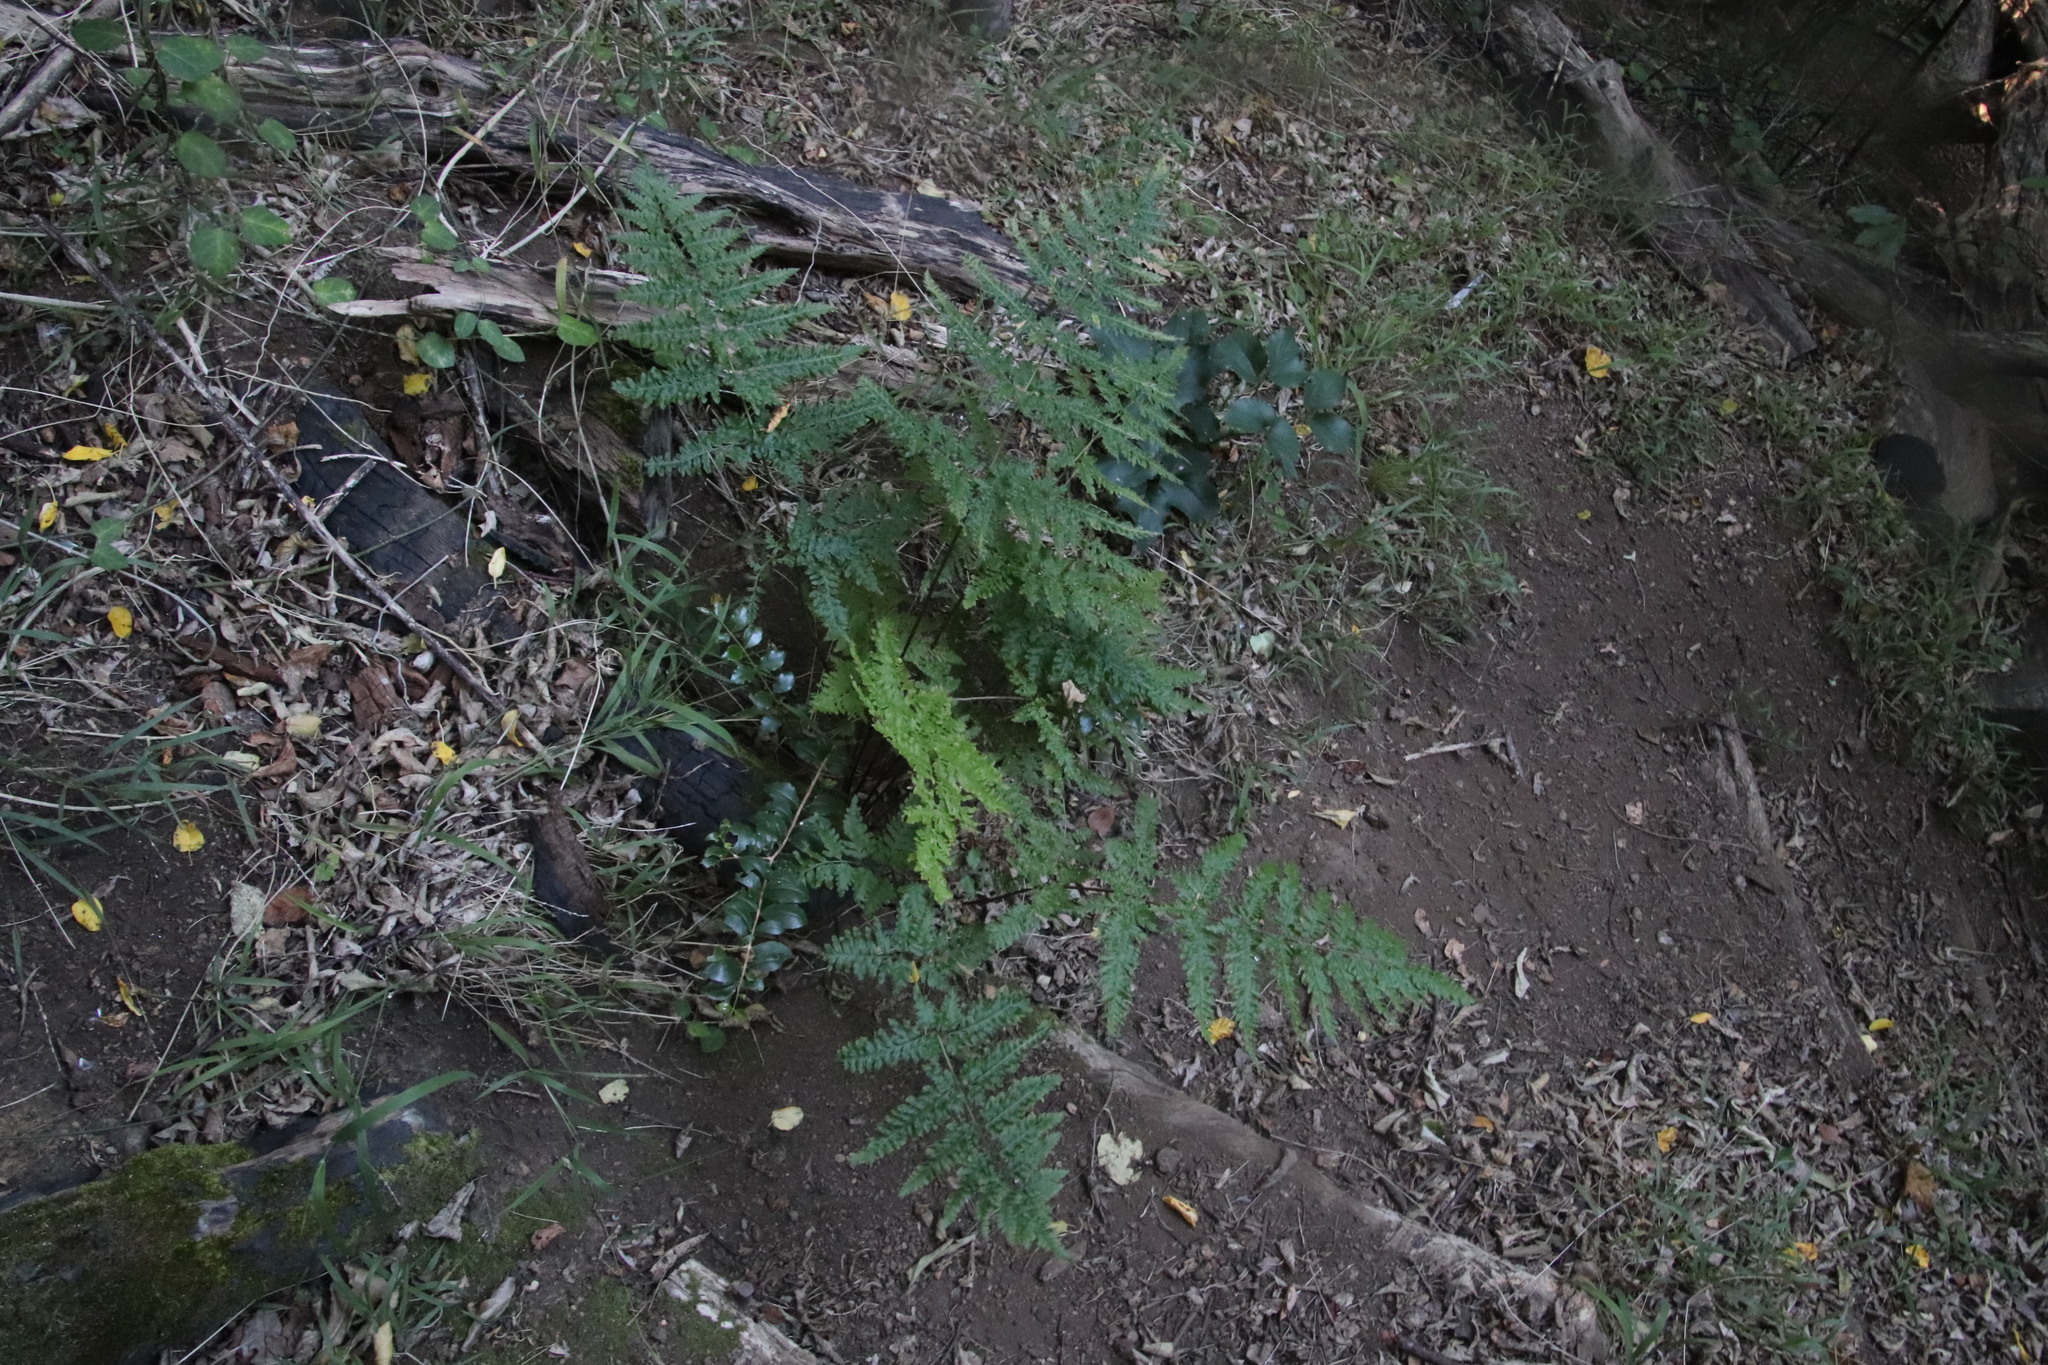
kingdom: Plantae
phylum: Tracheophyta
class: Polypodiopsida
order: Polypodiales
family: Pteridaceae
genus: Pteris
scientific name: Pteris tremula
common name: Australian brake
